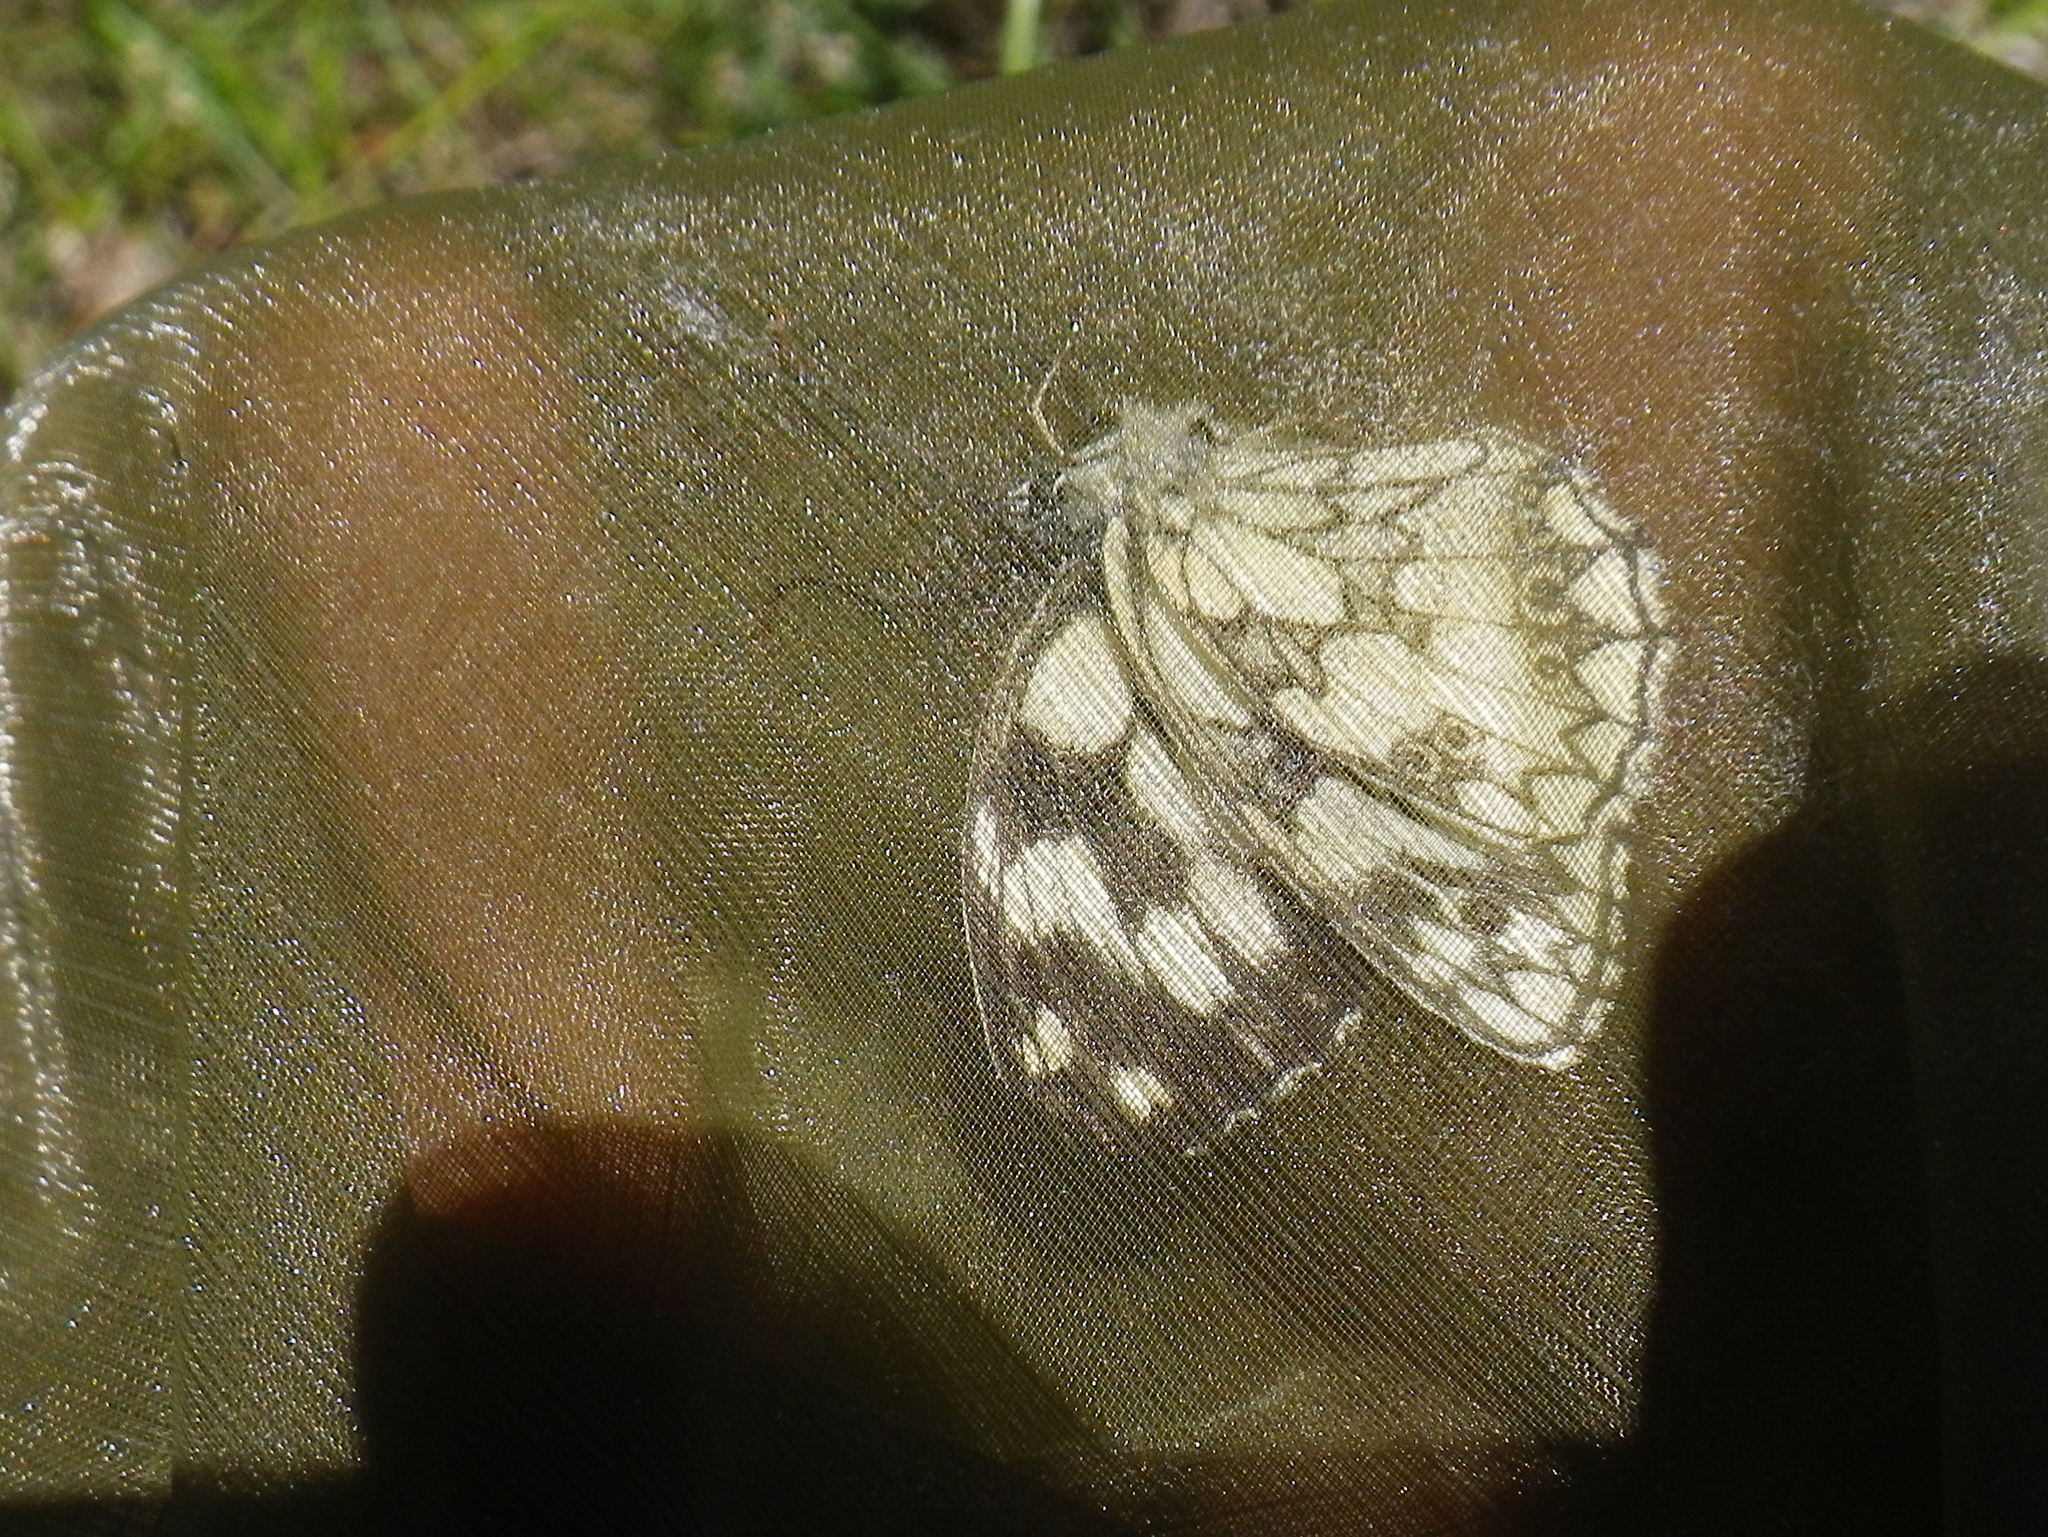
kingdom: Animalia
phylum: Arthropoda
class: Insecta
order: Lepidoptera
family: Nymphalidae
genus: Melanargia
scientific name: Melanargia galathea
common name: Marbled white
